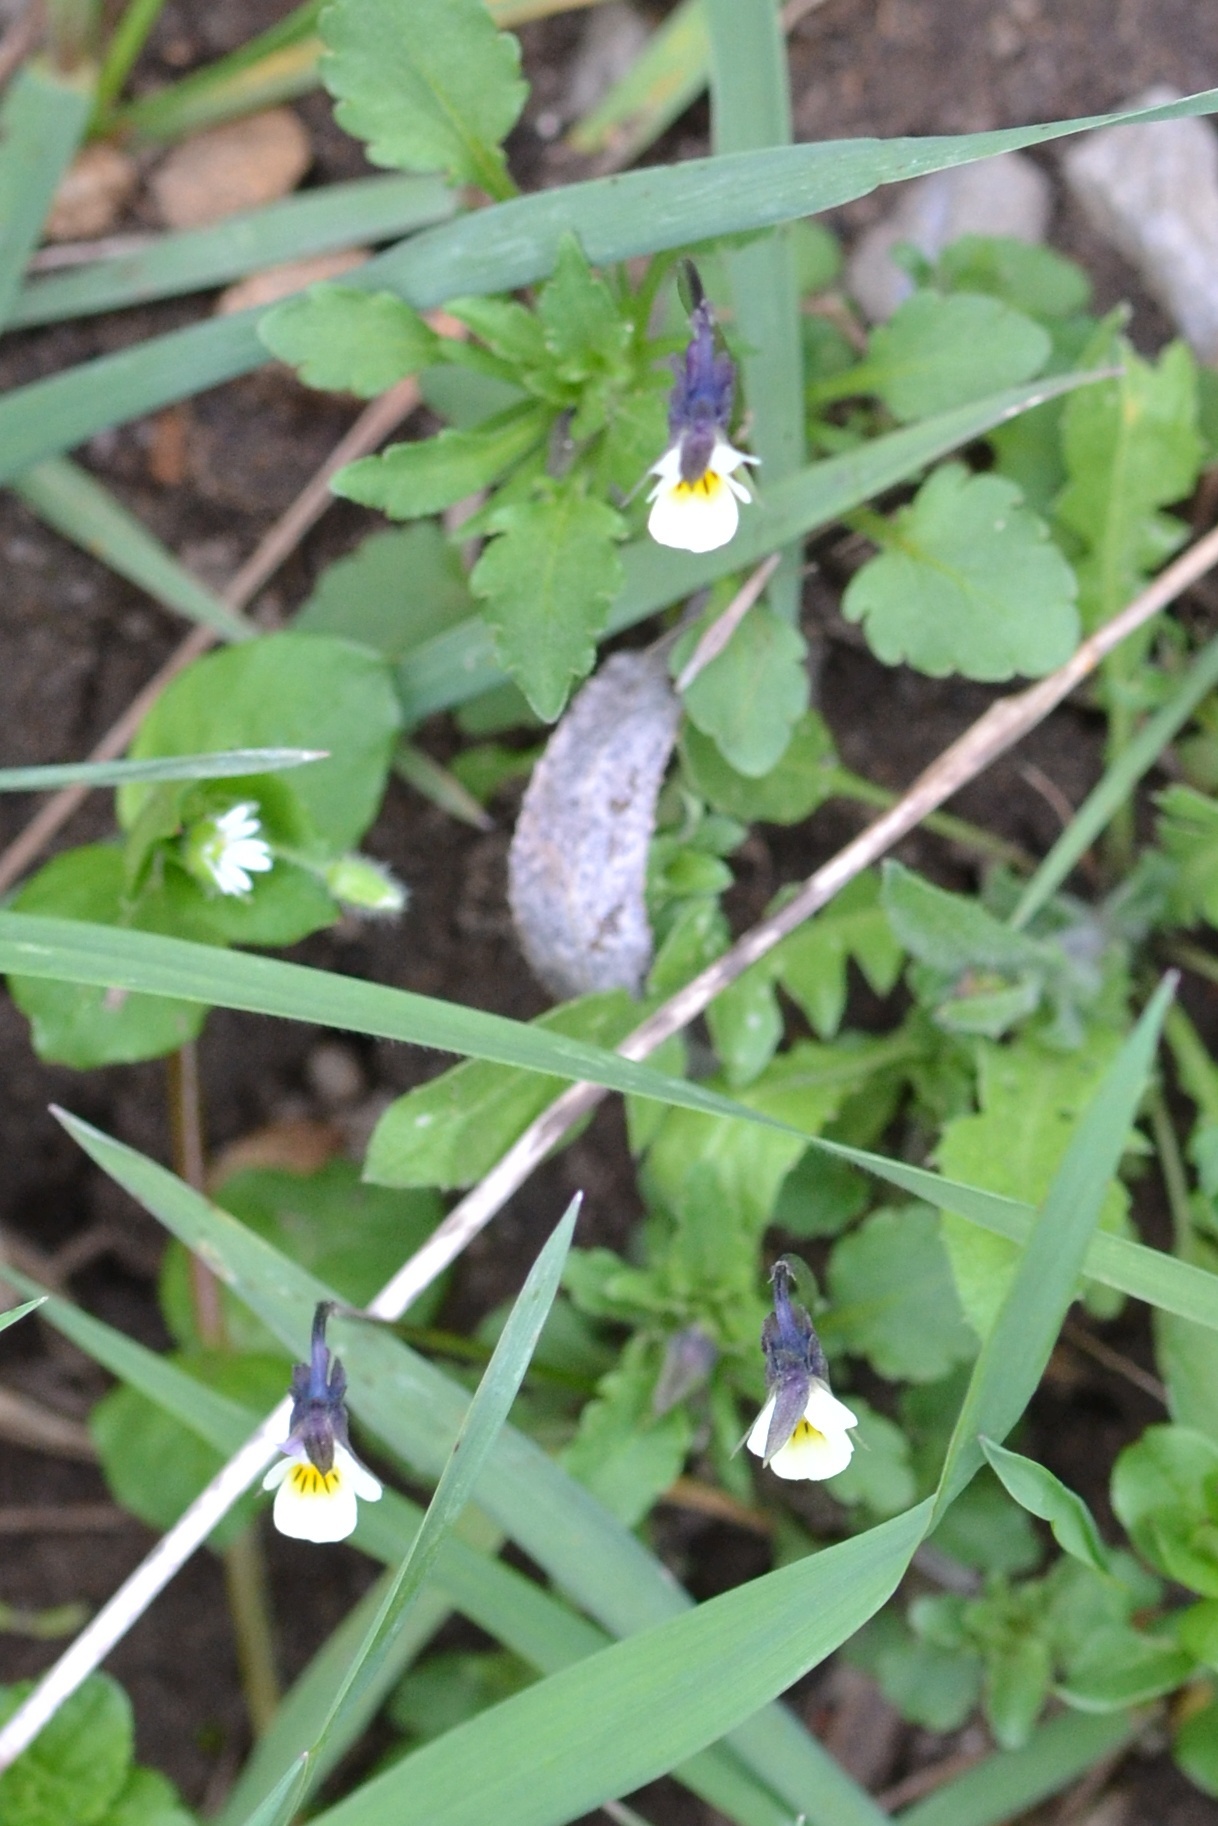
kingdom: Plantae
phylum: Tracheophyta
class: Magnoliopsida
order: Malpighiales
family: Violaceae
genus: Viola
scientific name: Viola arvensis
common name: Field pansy
